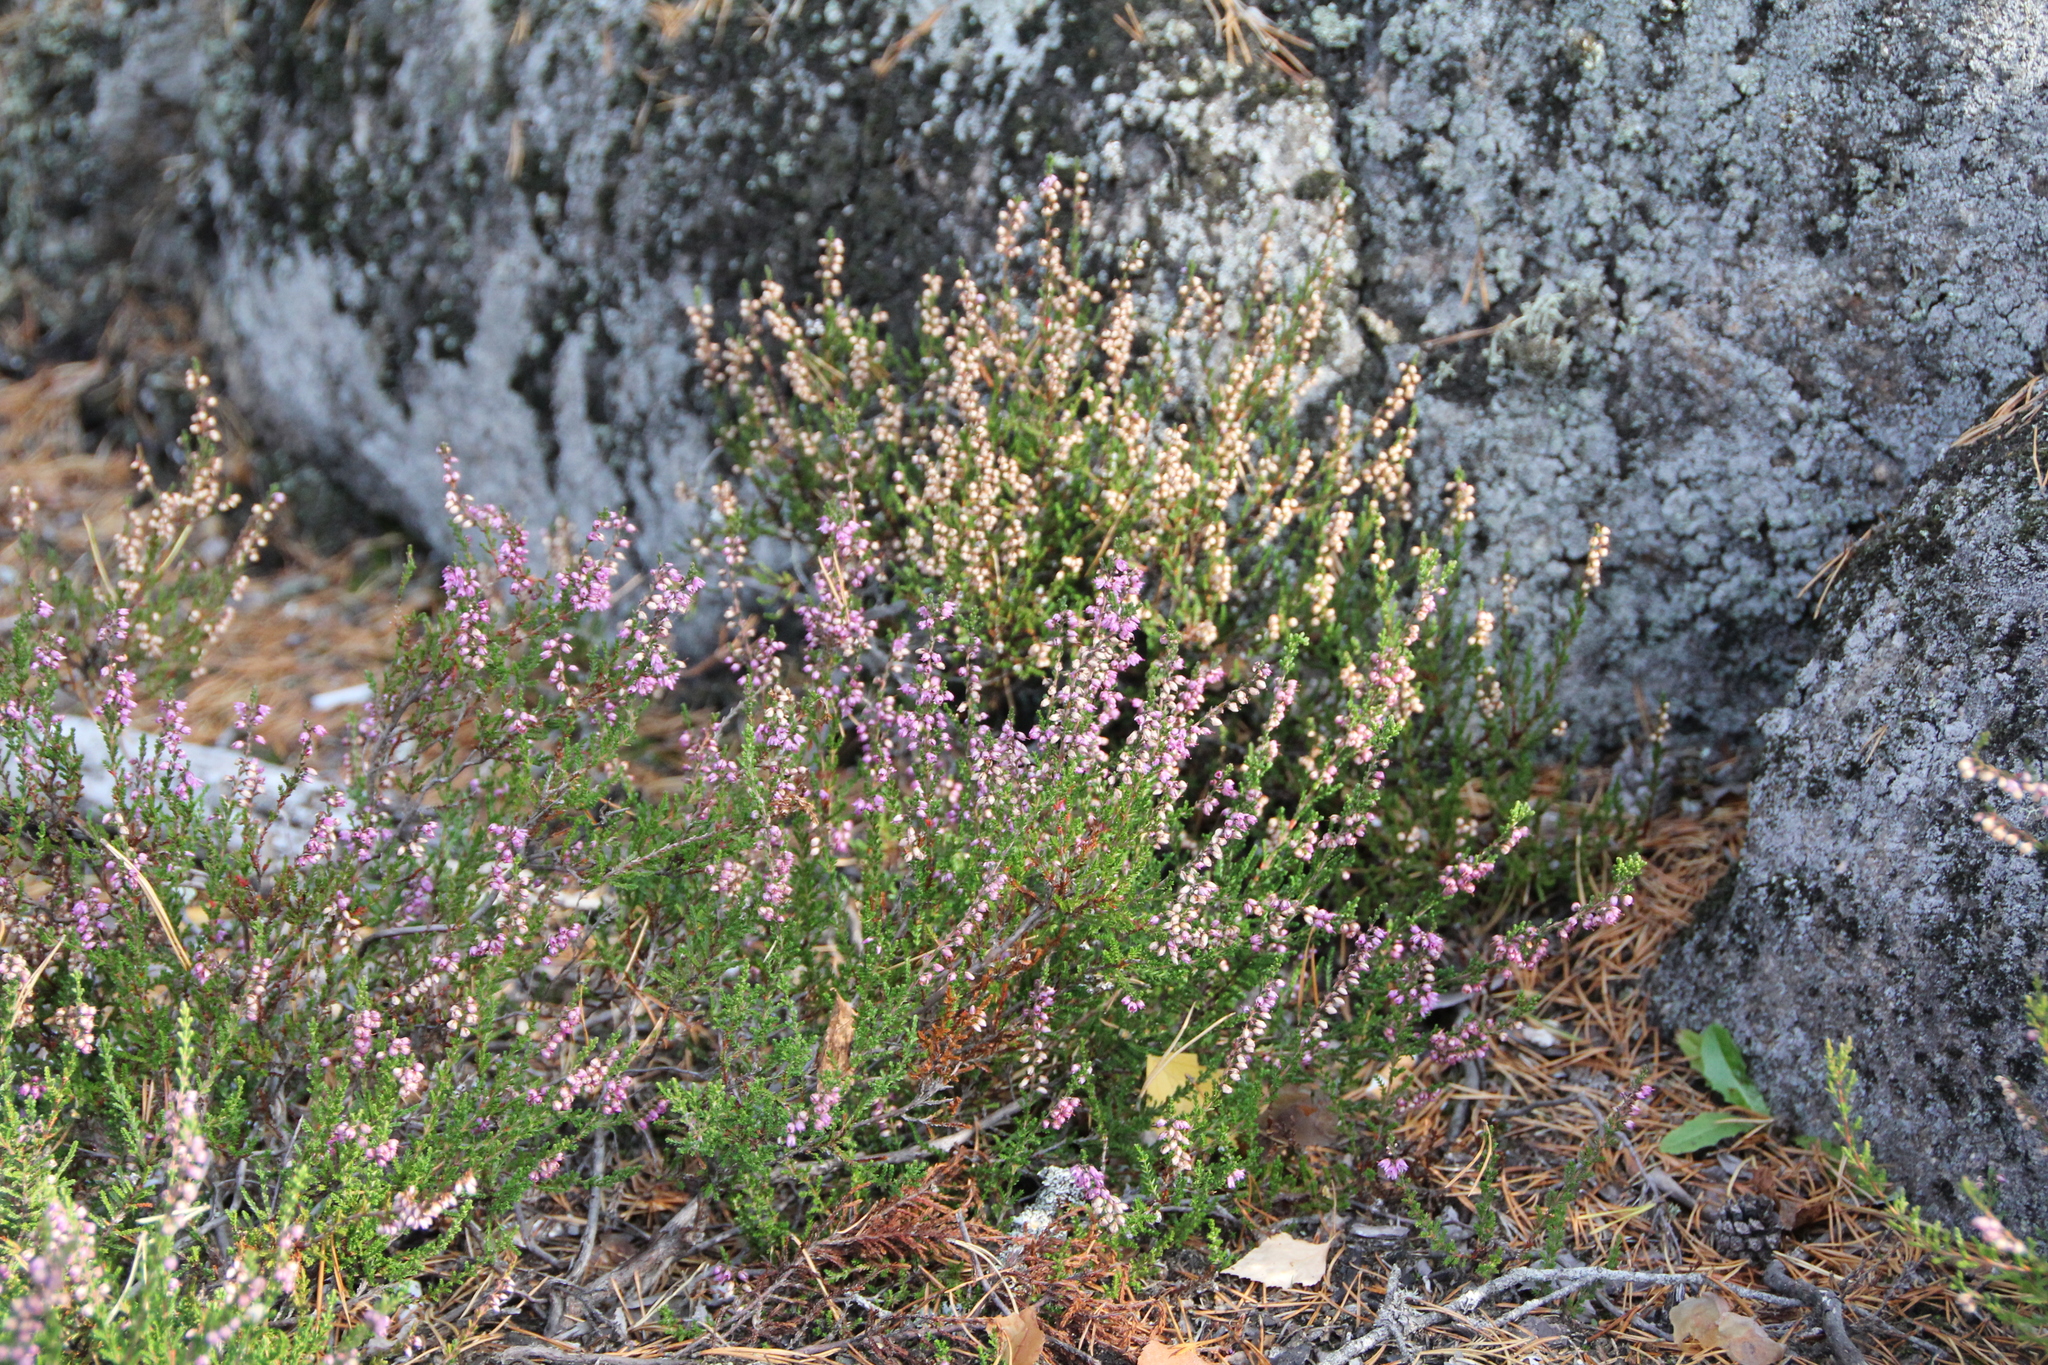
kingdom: Plantae
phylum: Tracheophyta
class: Magnoliopsida
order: Ericales
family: Ericaceae
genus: Calluna
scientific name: Calluna vulgaris
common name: Heather
